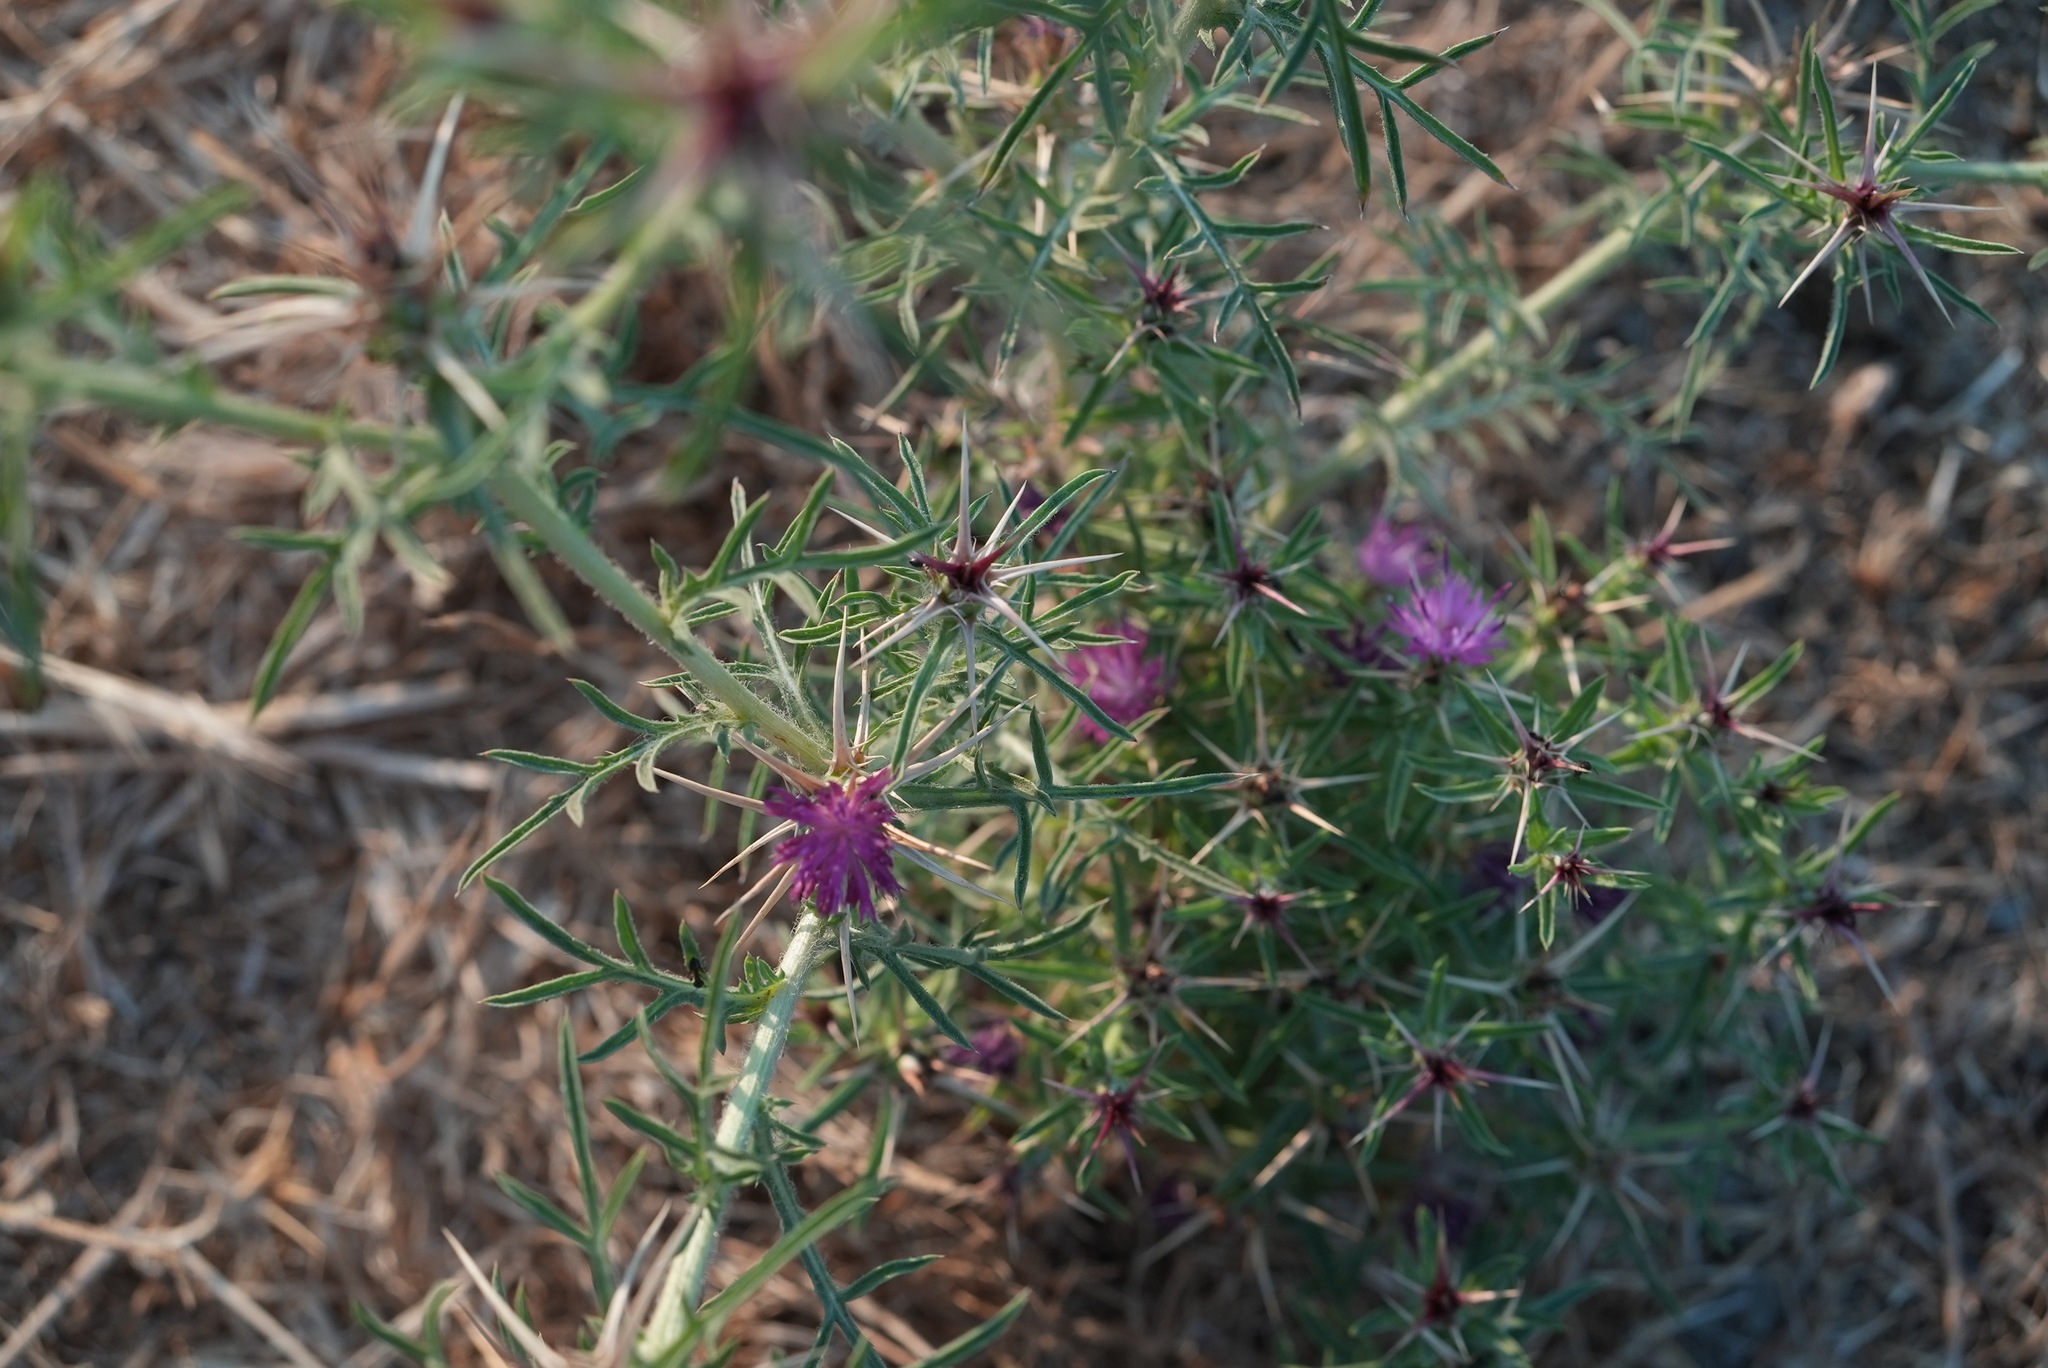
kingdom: Plantae
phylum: Tracheophyta
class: Magnoliopsida
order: Asterales
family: Asteraceae
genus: Centaurea
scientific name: Centaurea calcitrapa
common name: Red star-thistle
